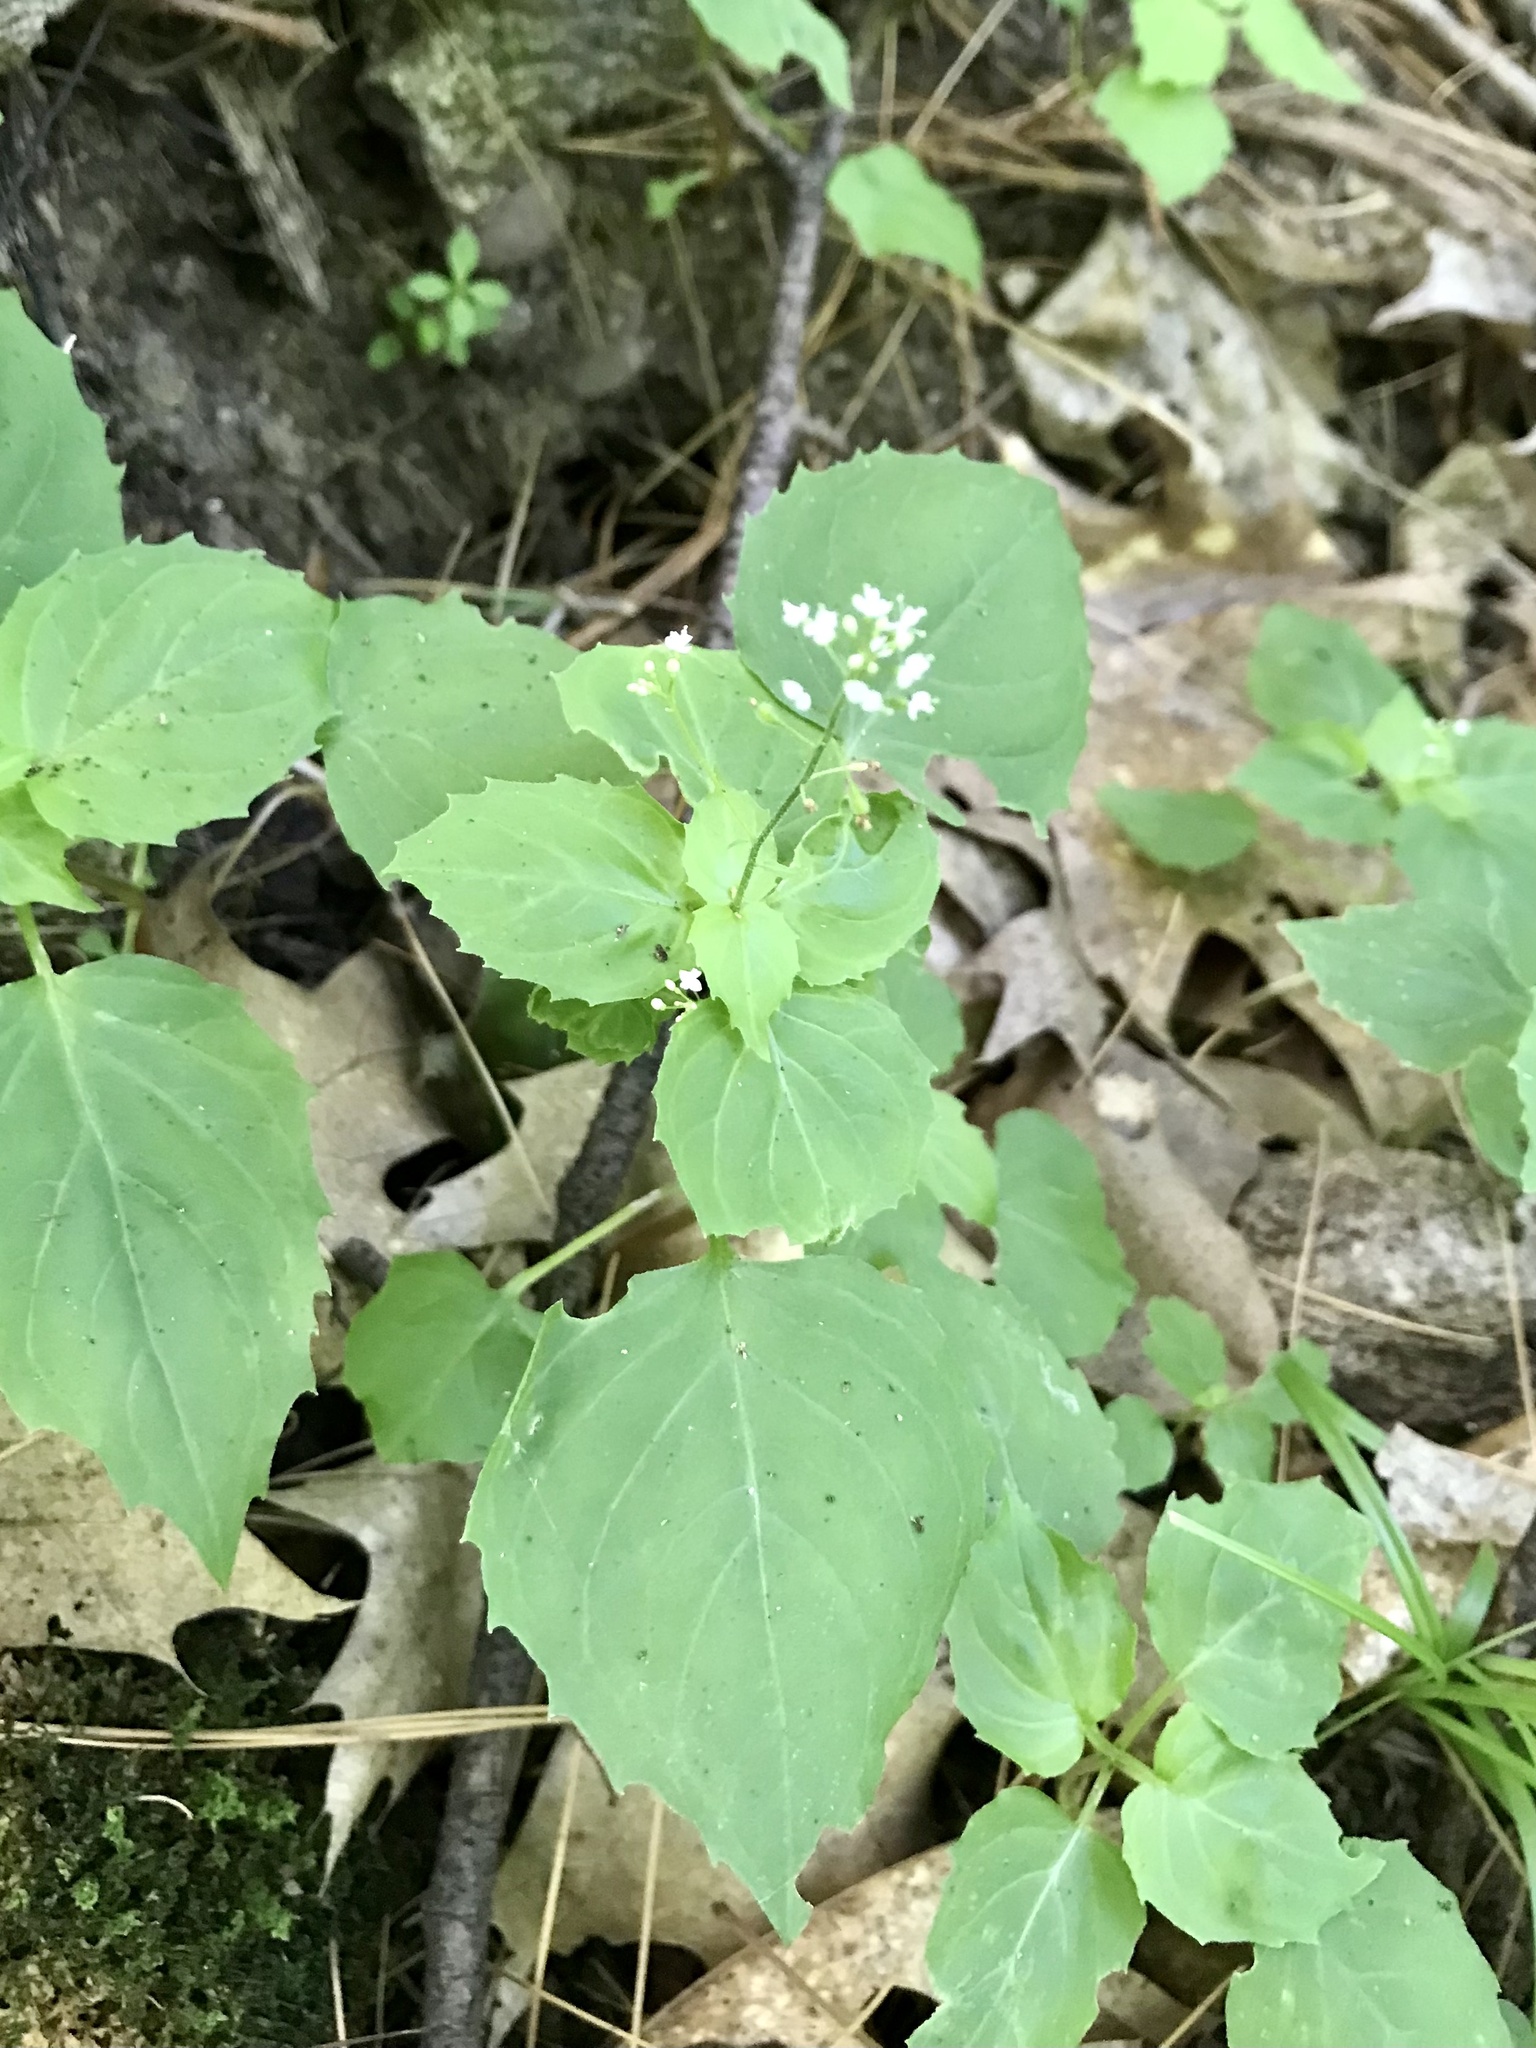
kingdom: Plantae
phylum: Tracheophyta
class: Magnoliopsida
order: Myrtales
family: Onagraceae
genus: Circaea
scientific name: Circaea alpina
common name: Alpine enchanter's-nightshade
